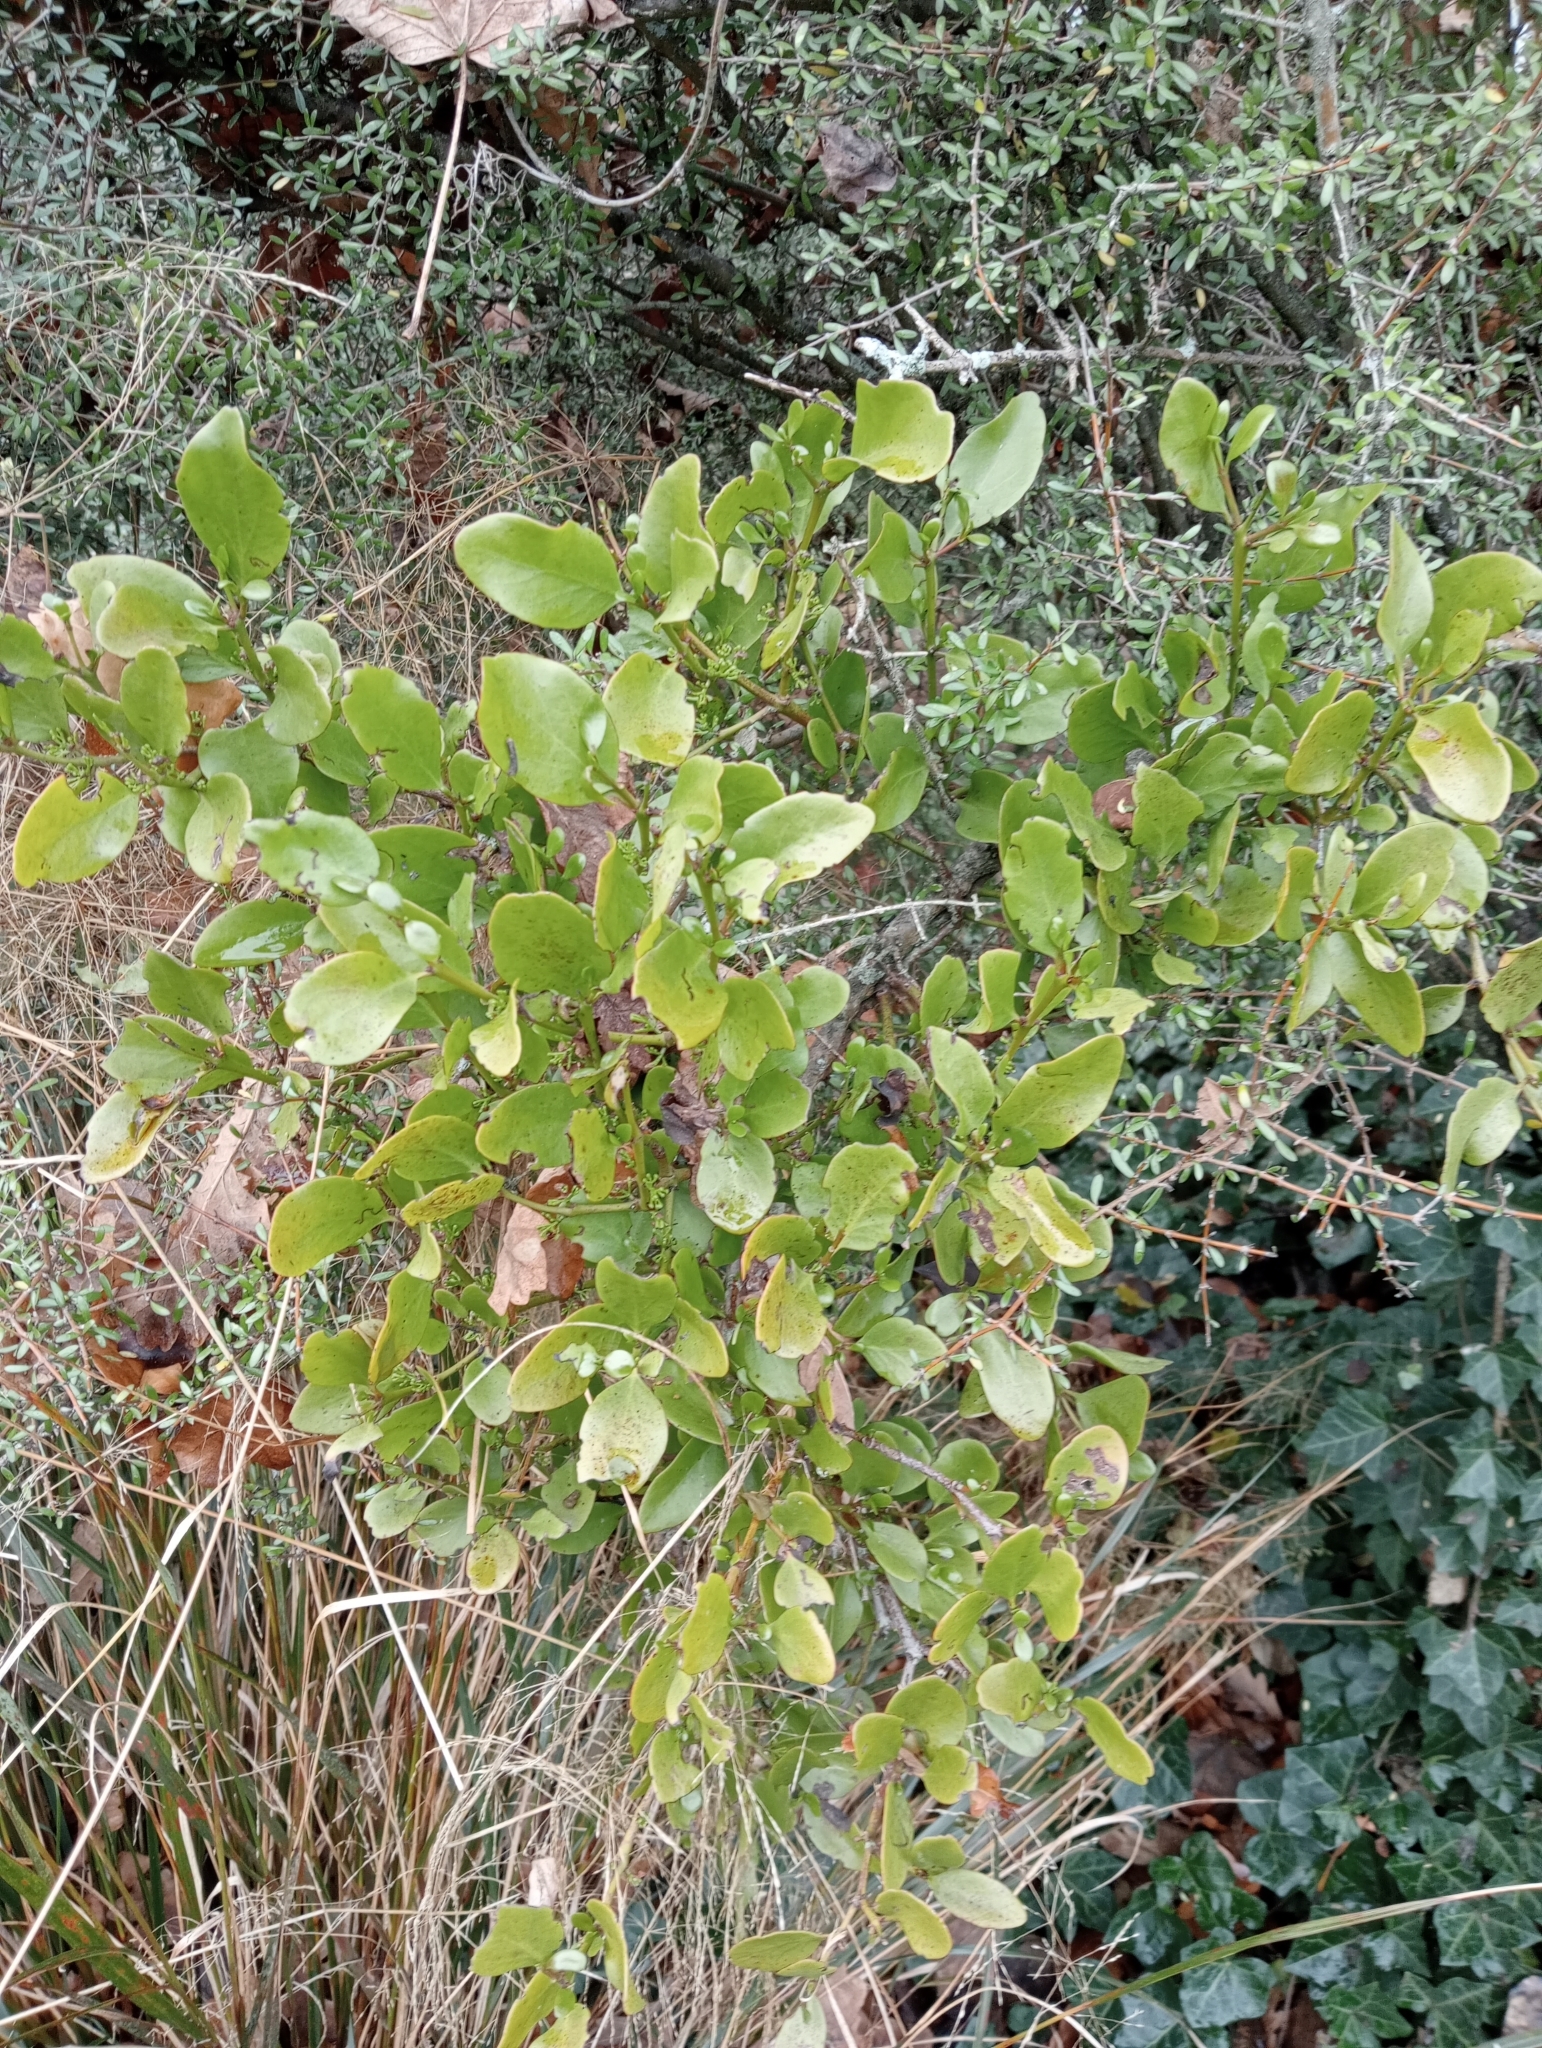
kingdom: Plantae
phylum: Tracheophyta
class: Magnoliopsida
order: Santalales
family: Loranthaceae
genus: Ileostylus
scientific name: Ileostylus micranthus
